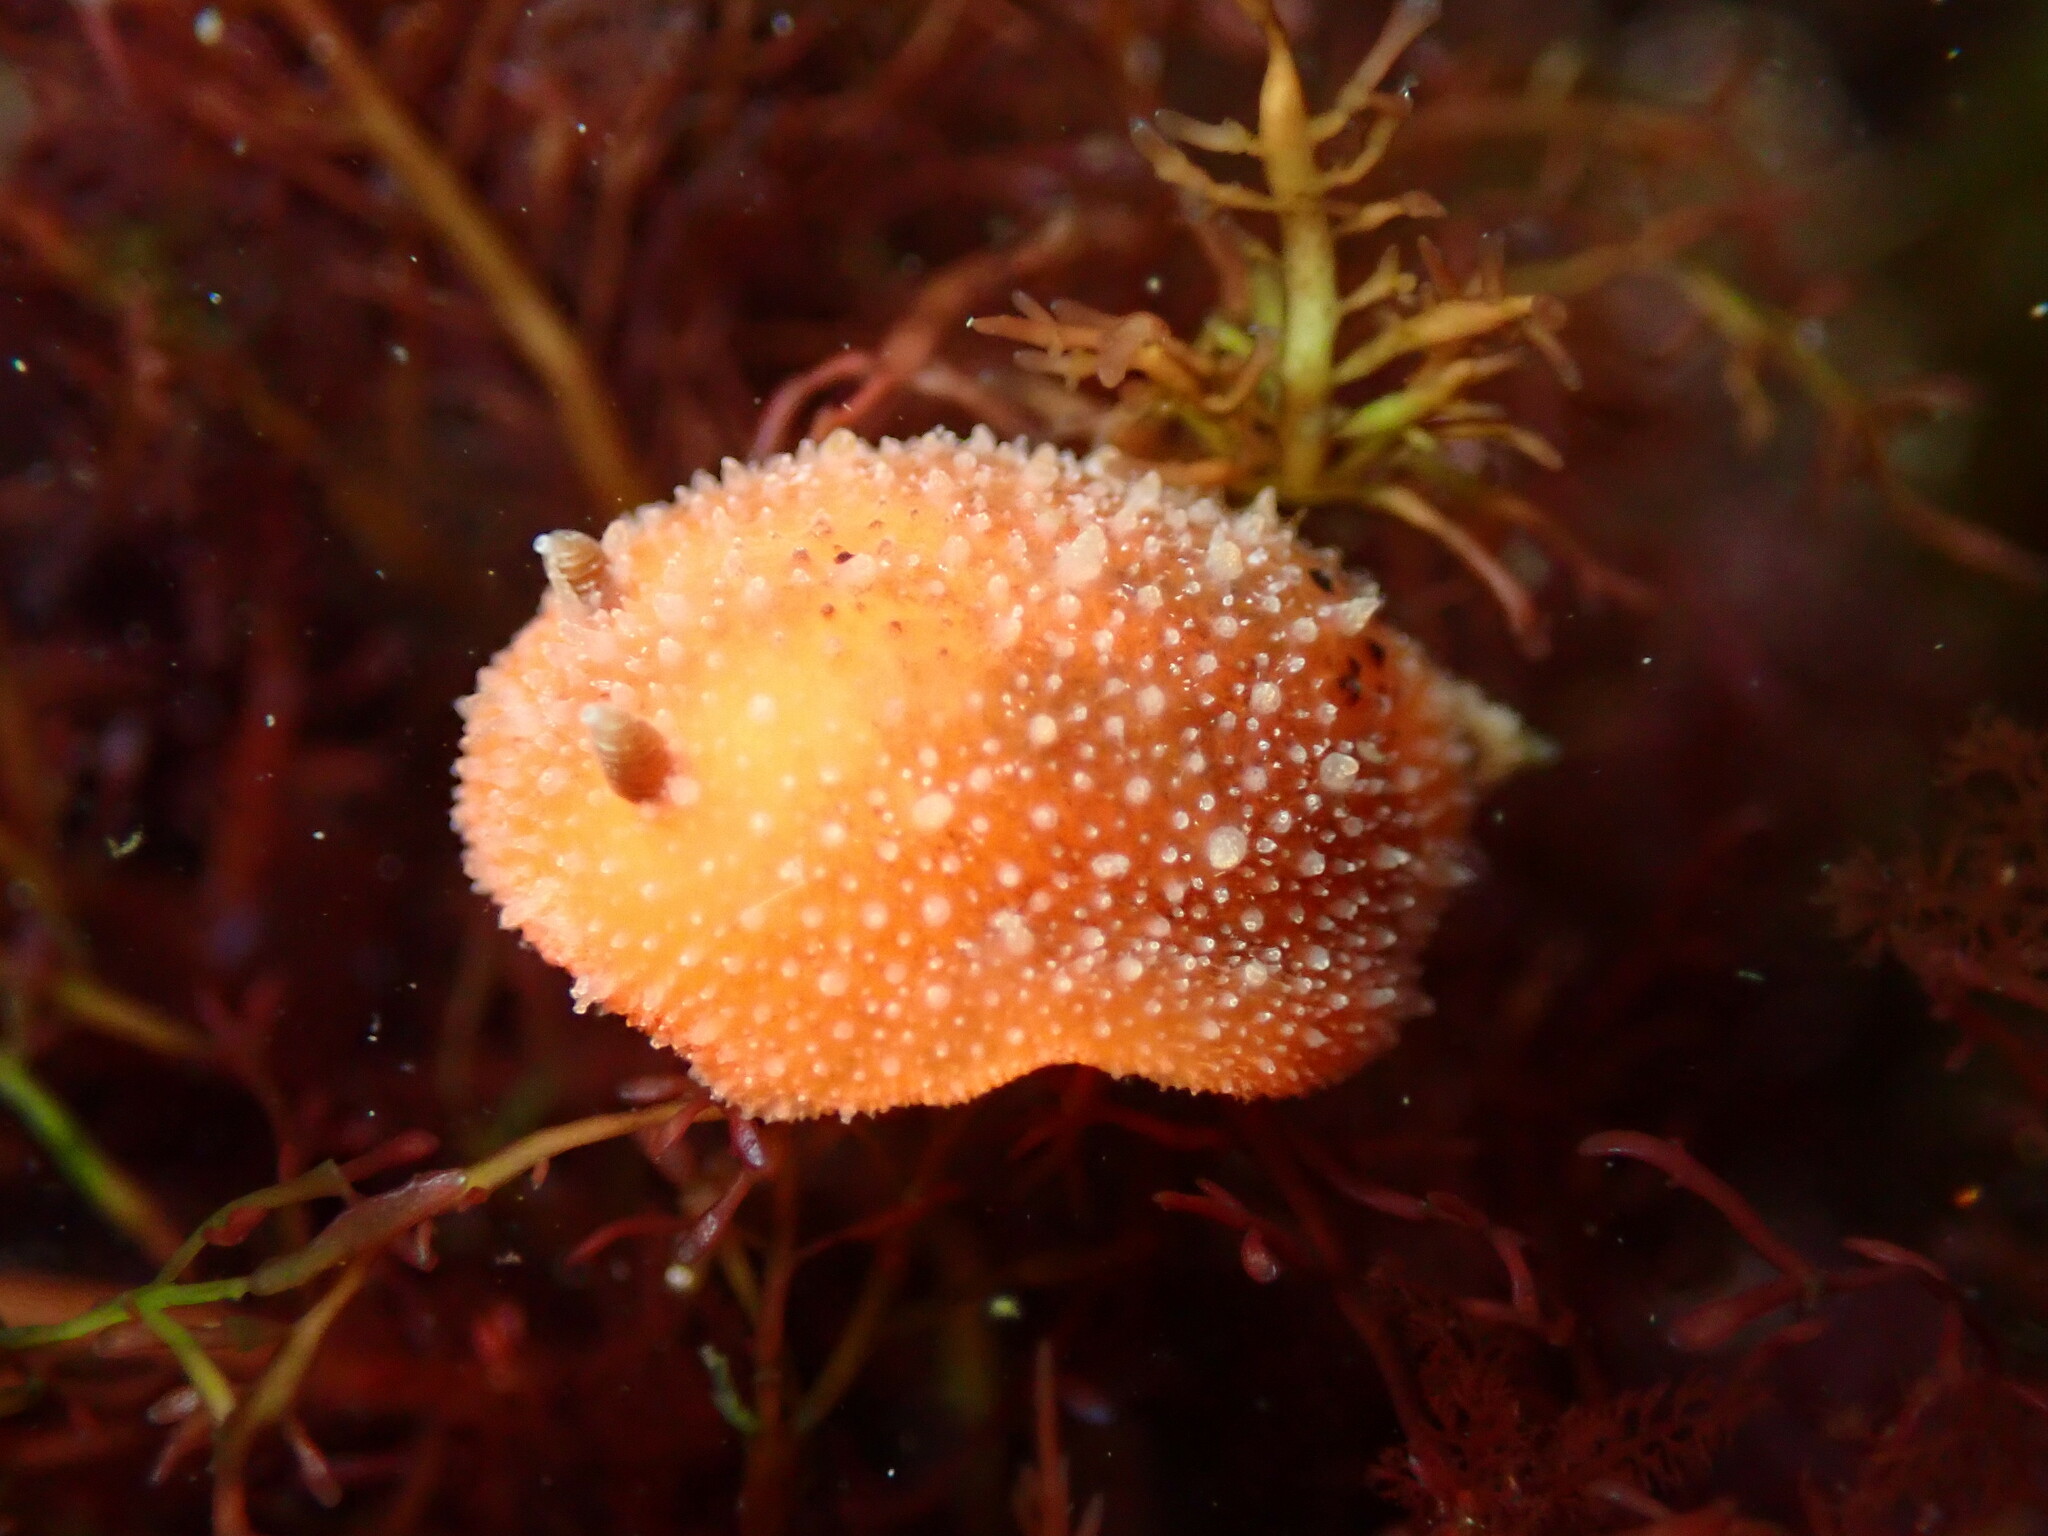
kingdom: Animalia
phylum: Mollusca
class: Gastropoda
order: Nudibranchia
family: Discodorididae
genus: Thordisa
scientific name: Thordisa bimaculata
